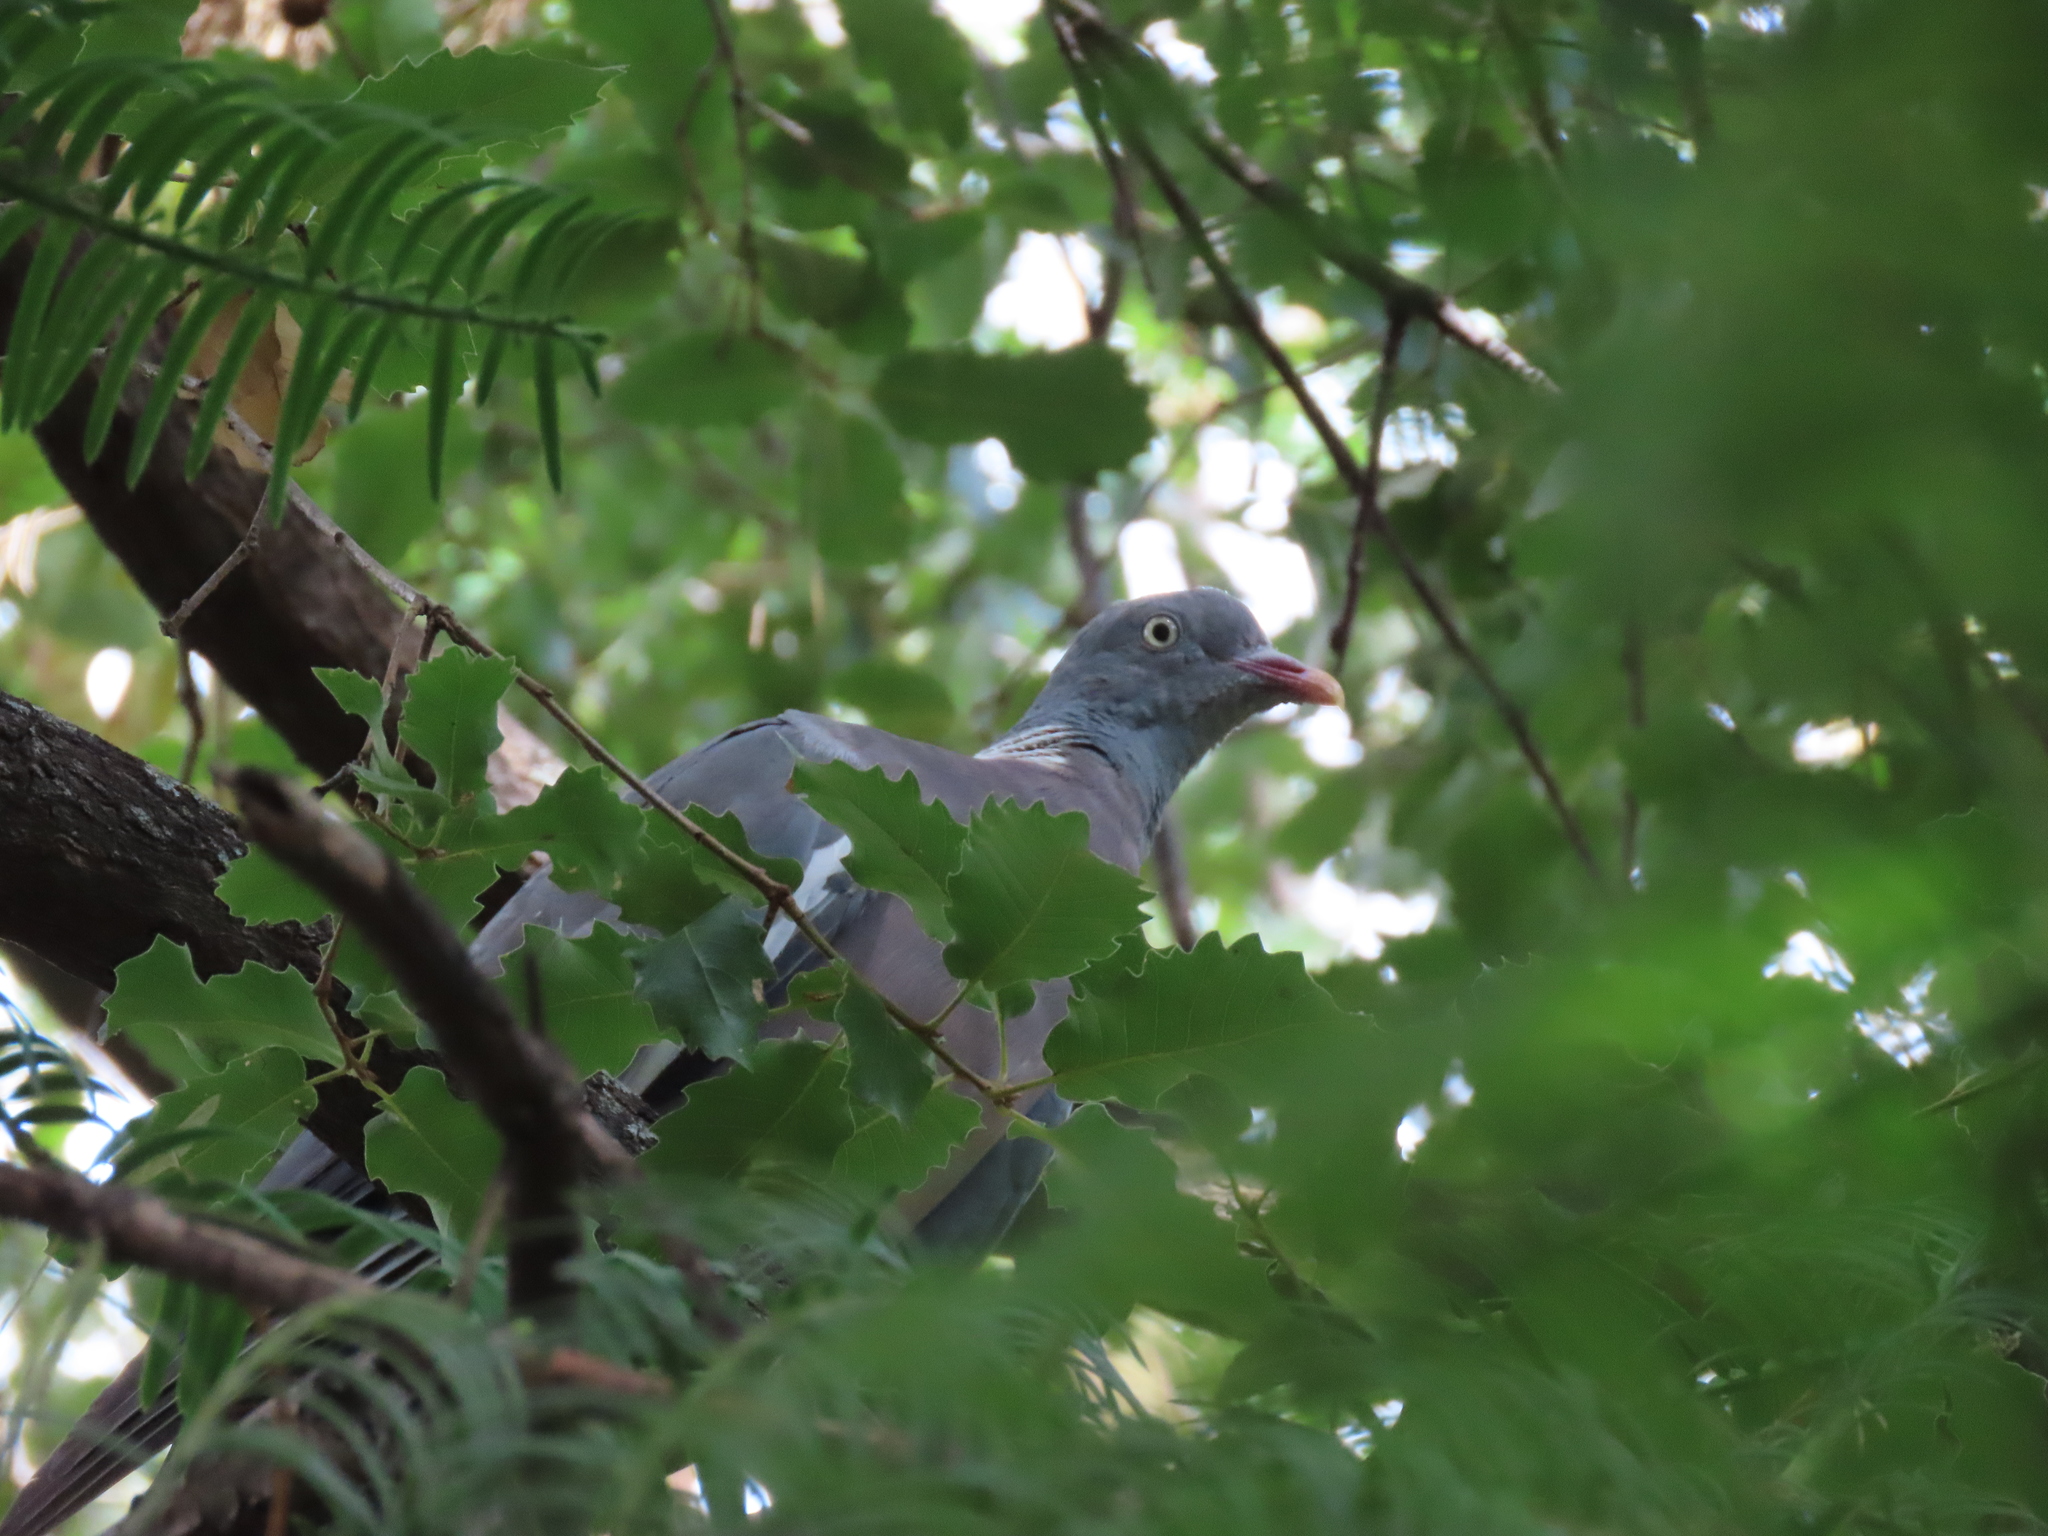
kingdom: Animalia
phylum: Chordata
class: Aves
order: Columbiformes
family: Columbidae
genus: Columba
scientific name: Columba palumbus
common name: Common wood pigeon
